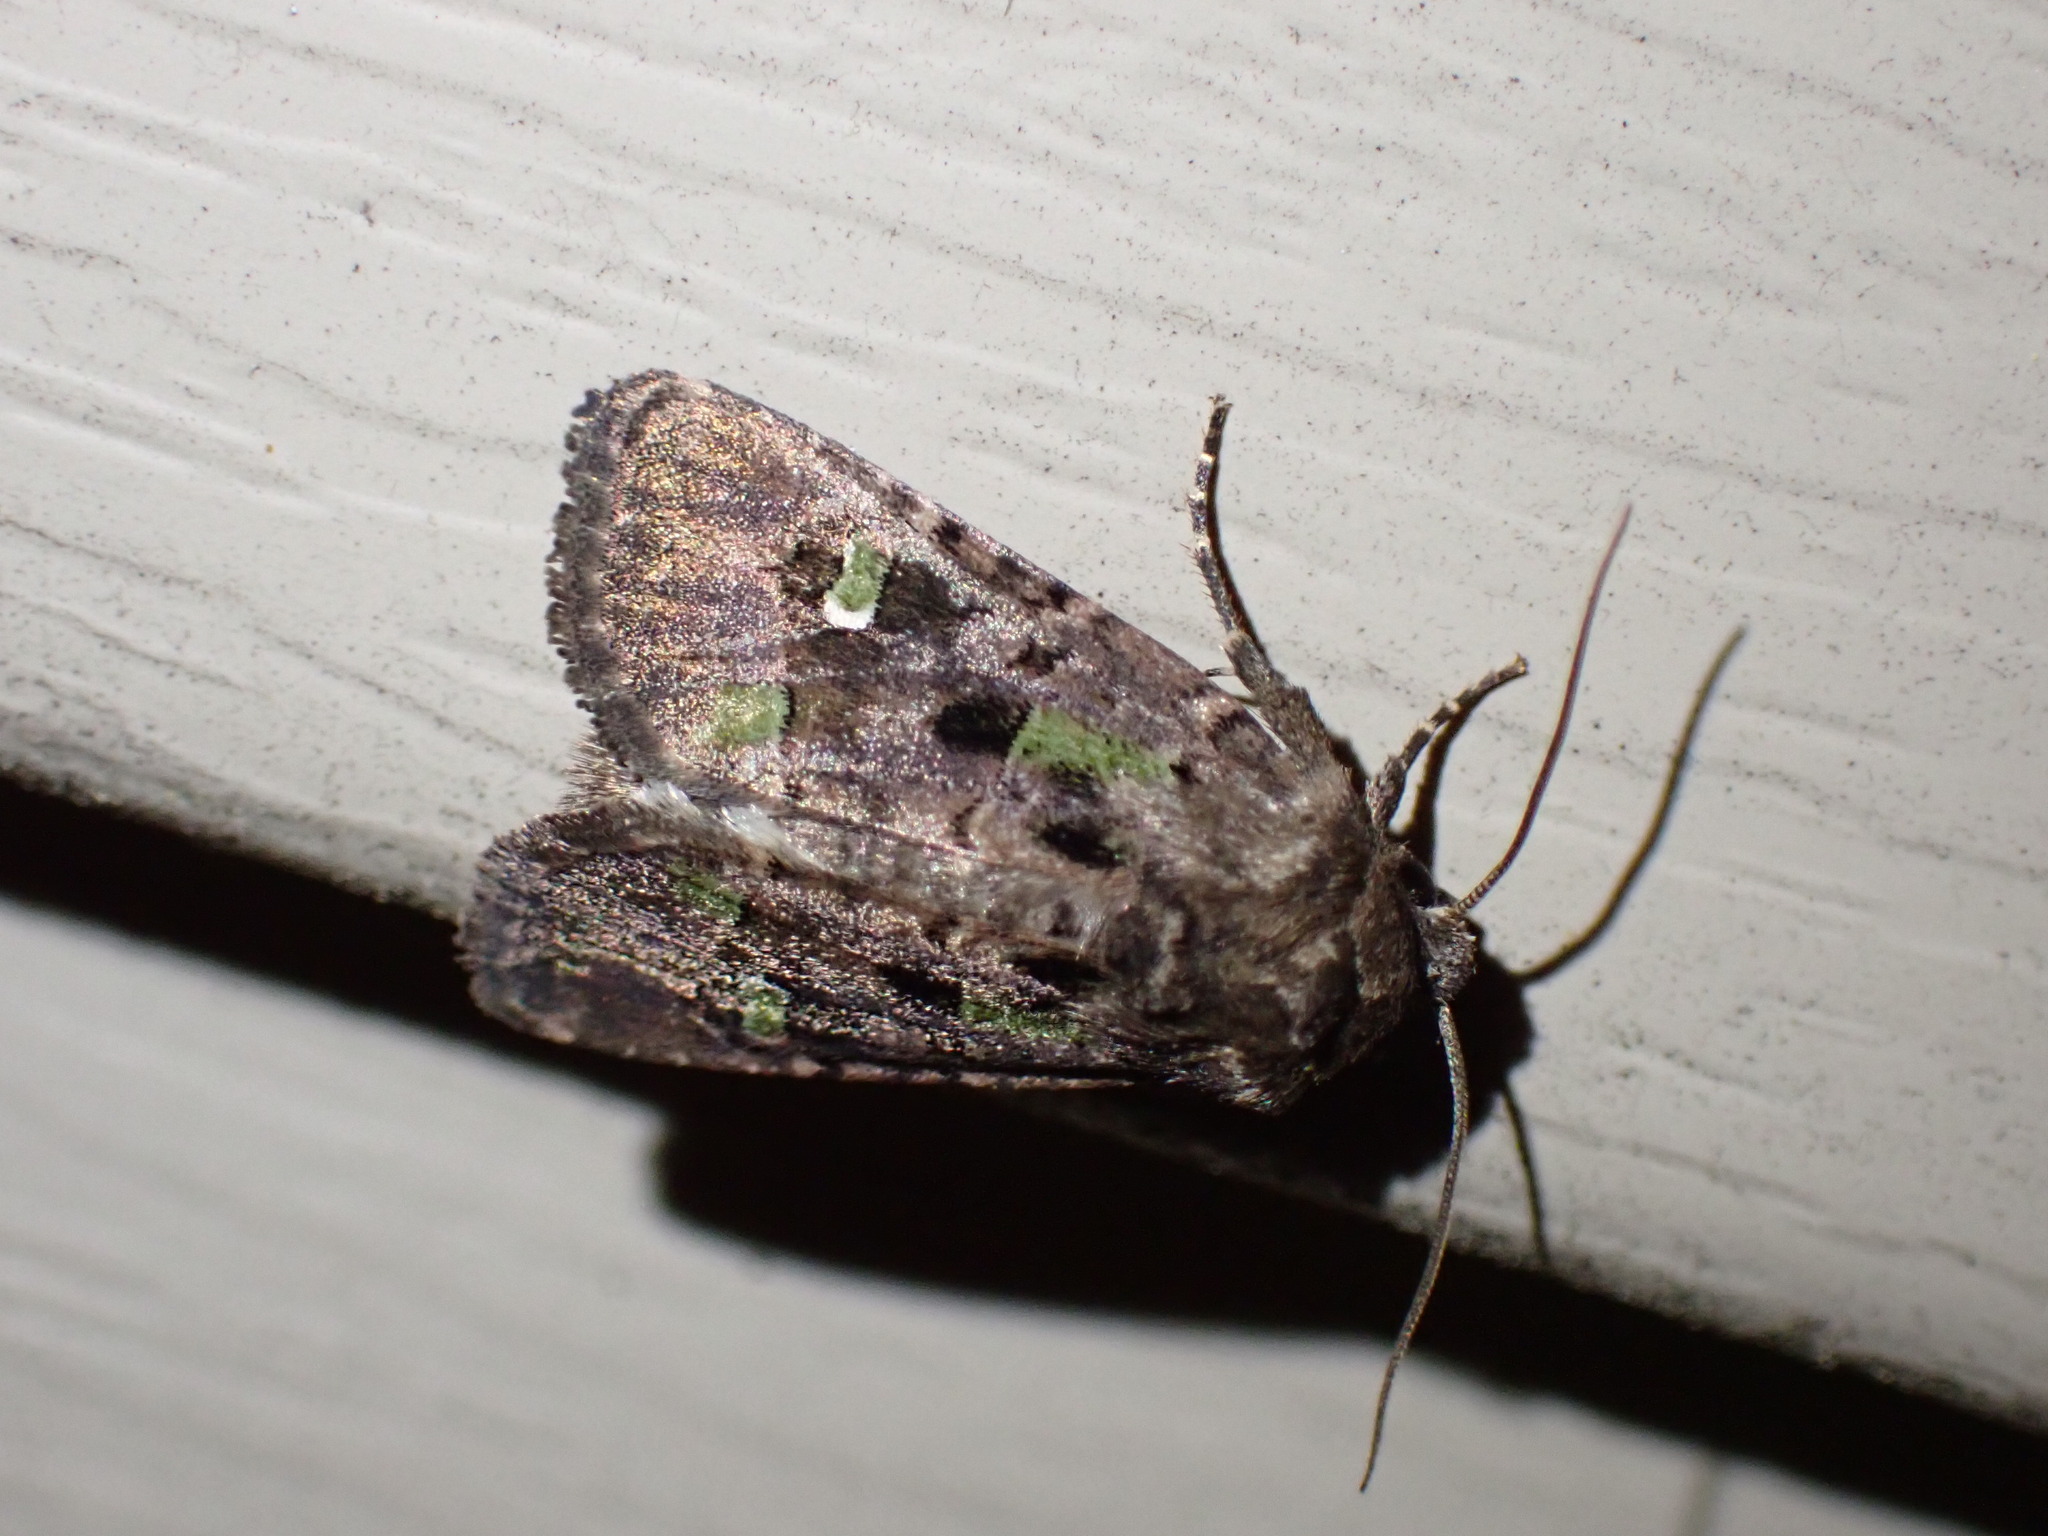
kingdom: Animalia
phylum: Arthropoda
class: Insecta
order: Lepidoptera
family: Noctuidae
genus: Lacinipolia
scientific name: Lacinipolia renigera
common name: Kidney-spotted minor
